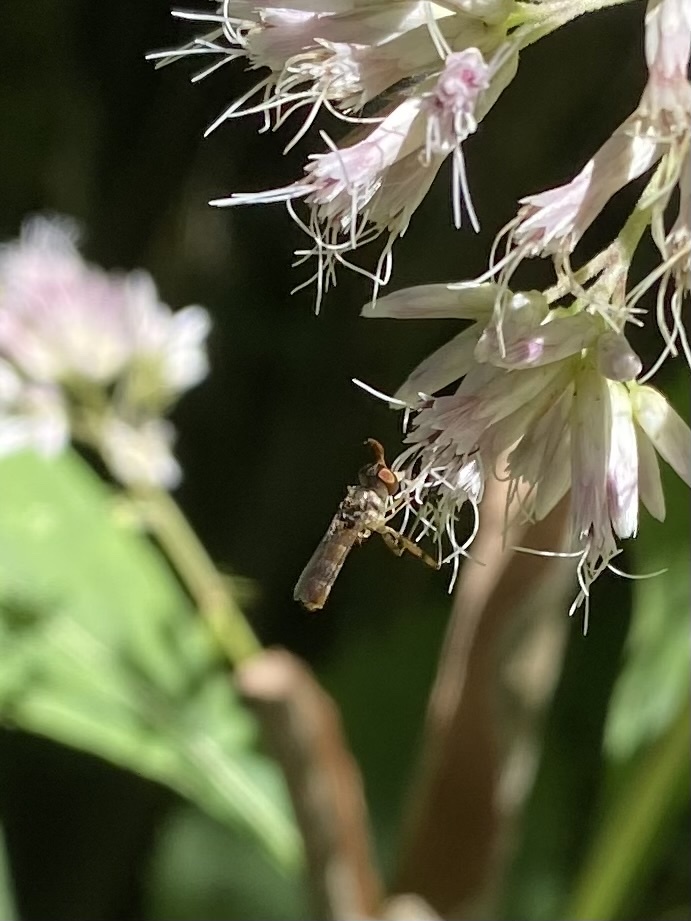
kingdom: Animalia
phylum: Arthropoda
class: Insecta
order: Diptera
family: Conopidae
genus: Stylogaster
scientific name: Stylogaster neglecta
